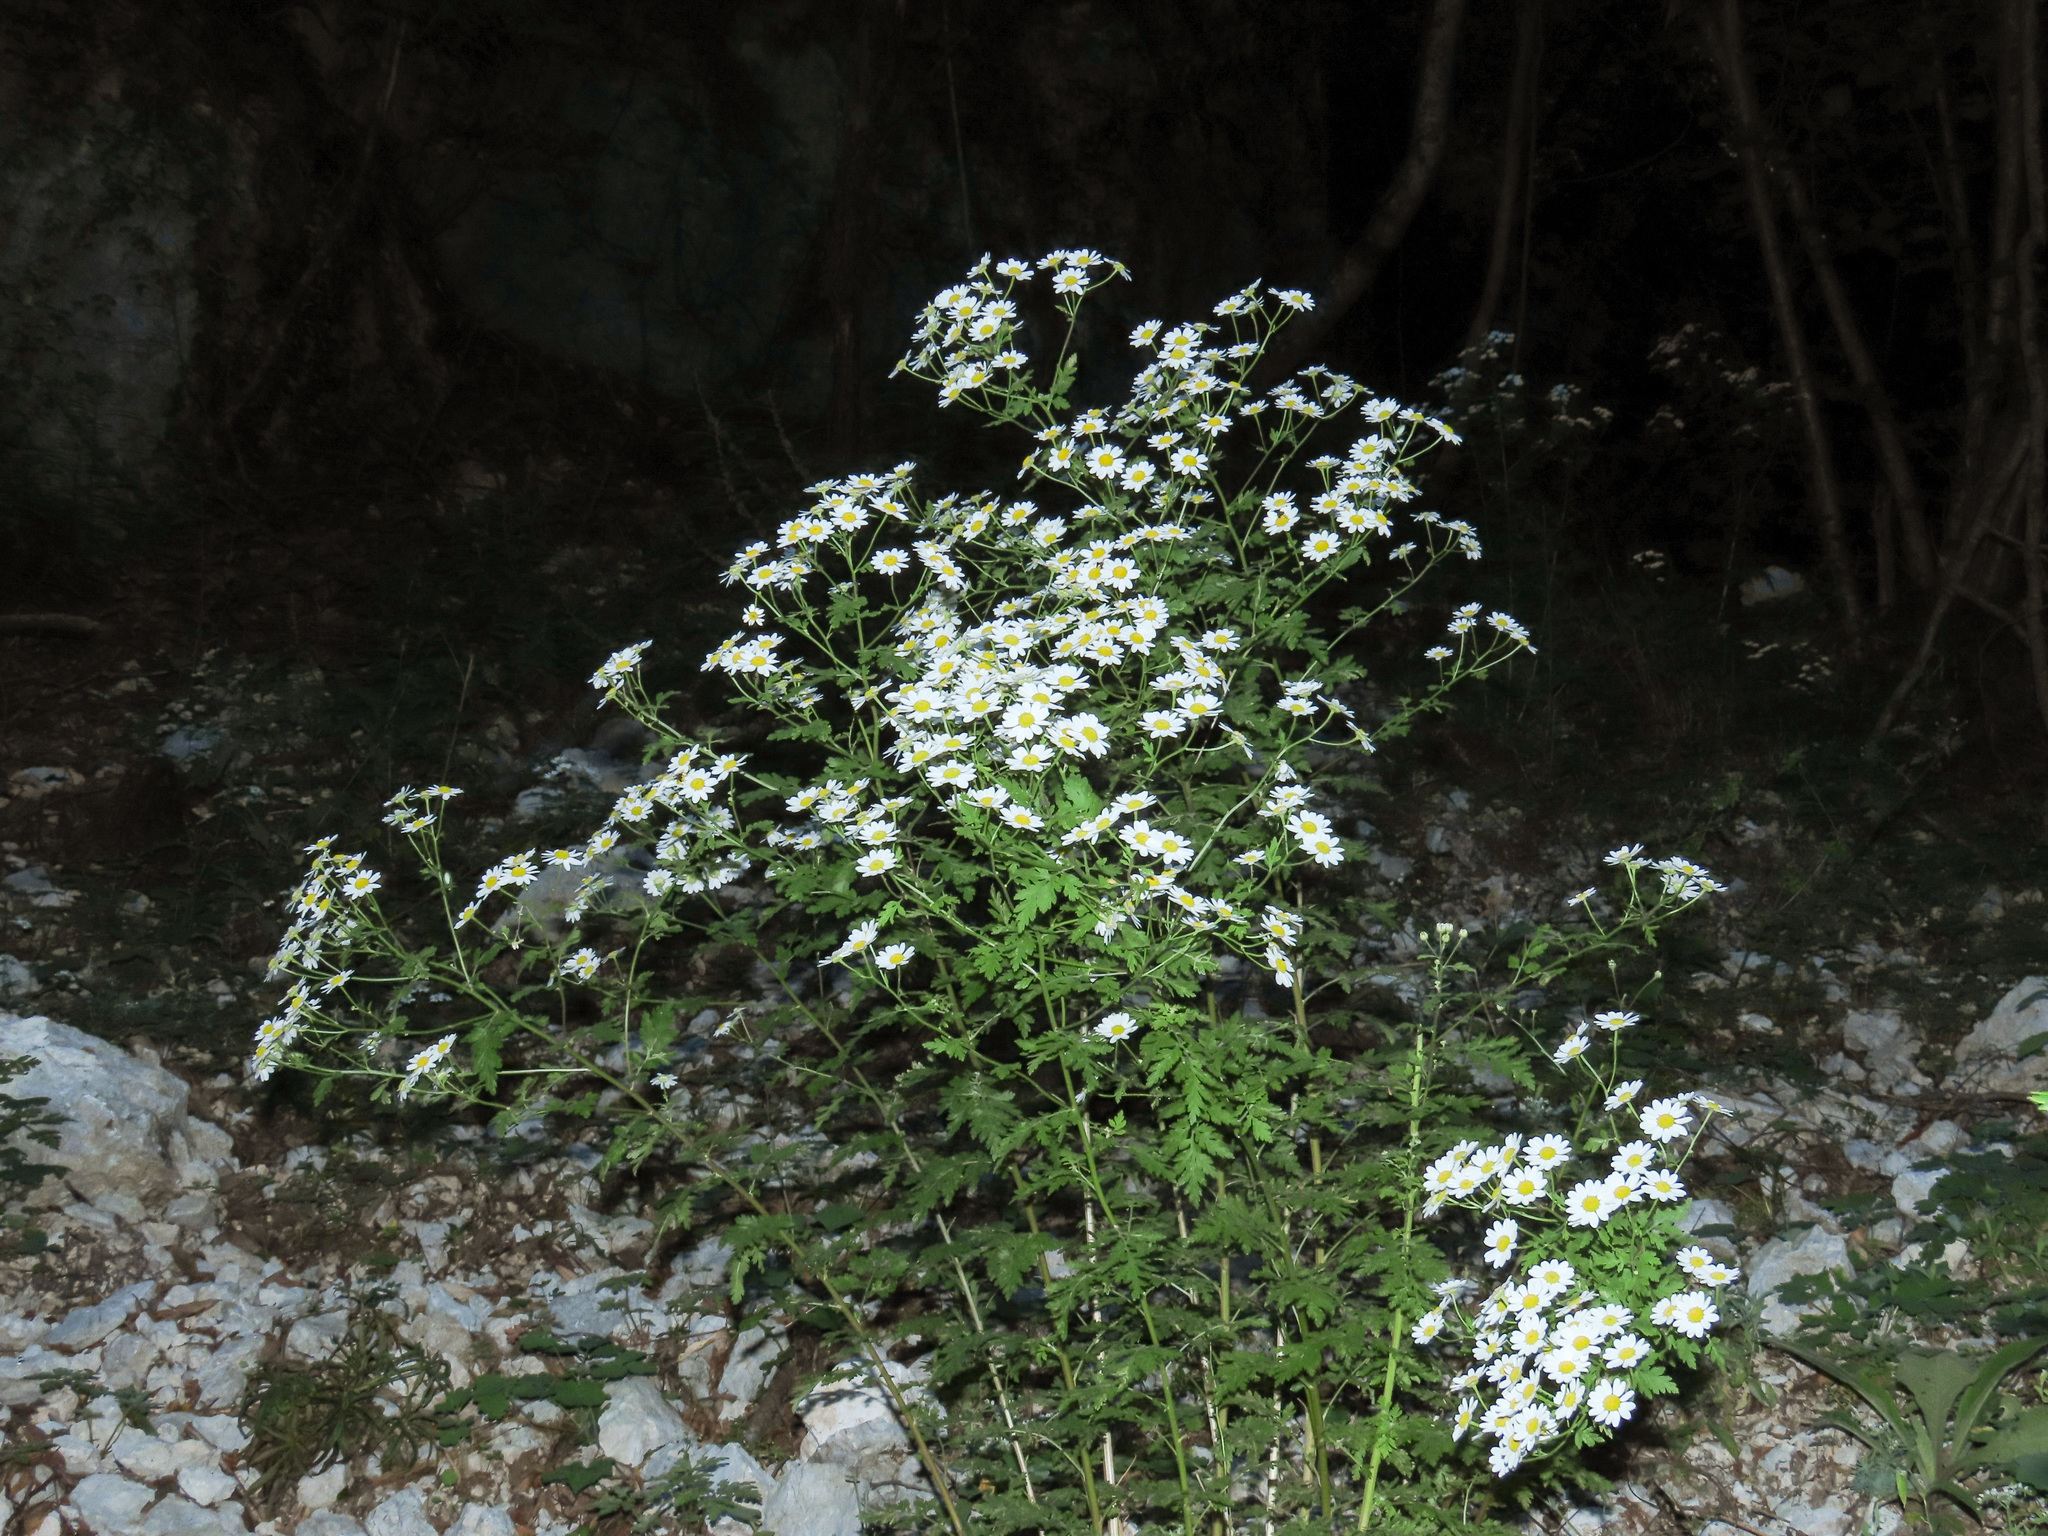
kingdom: Plantae
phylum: Tracheophyta
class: Magnoliopsida
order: Asterales
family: Asteraceae
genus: Tanacetum
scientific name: Tanacetum corymbosum
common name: Scentless feverfew
